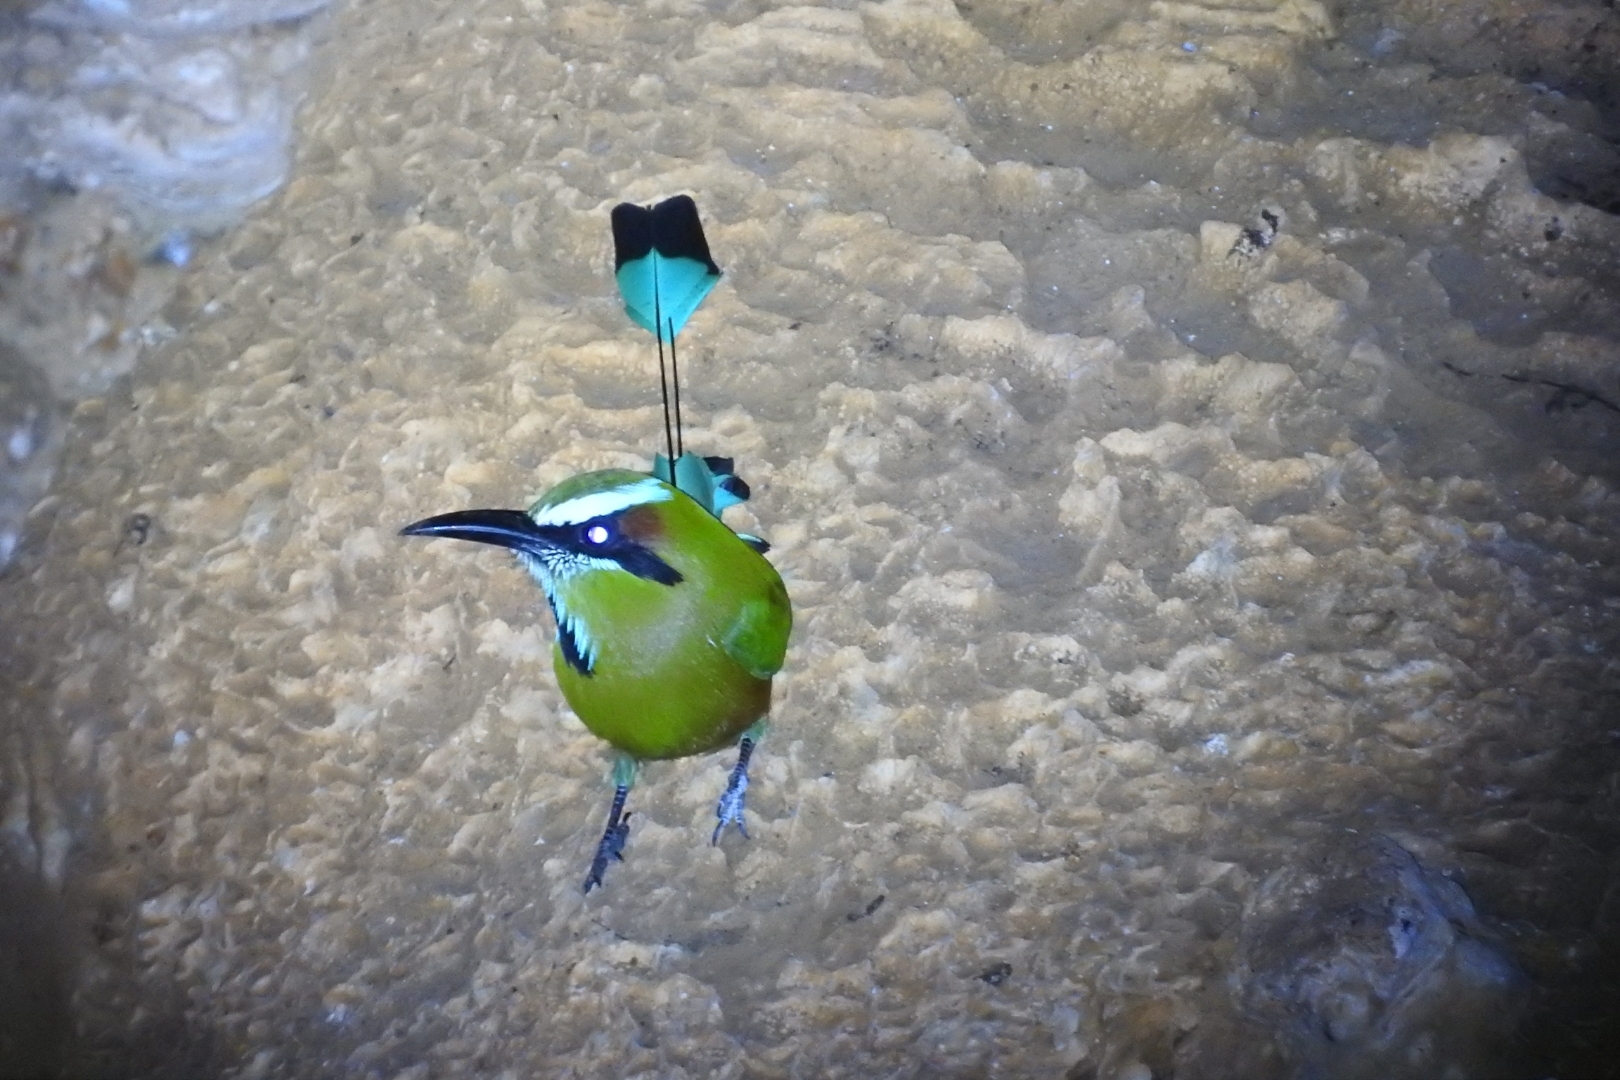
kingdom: Animalia
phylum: Chordata
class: Aves
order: Coraciiformes
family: Momotidae
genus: Eumomota
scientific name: Eumomota superciliosa
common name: Turquoise-browed motmot
